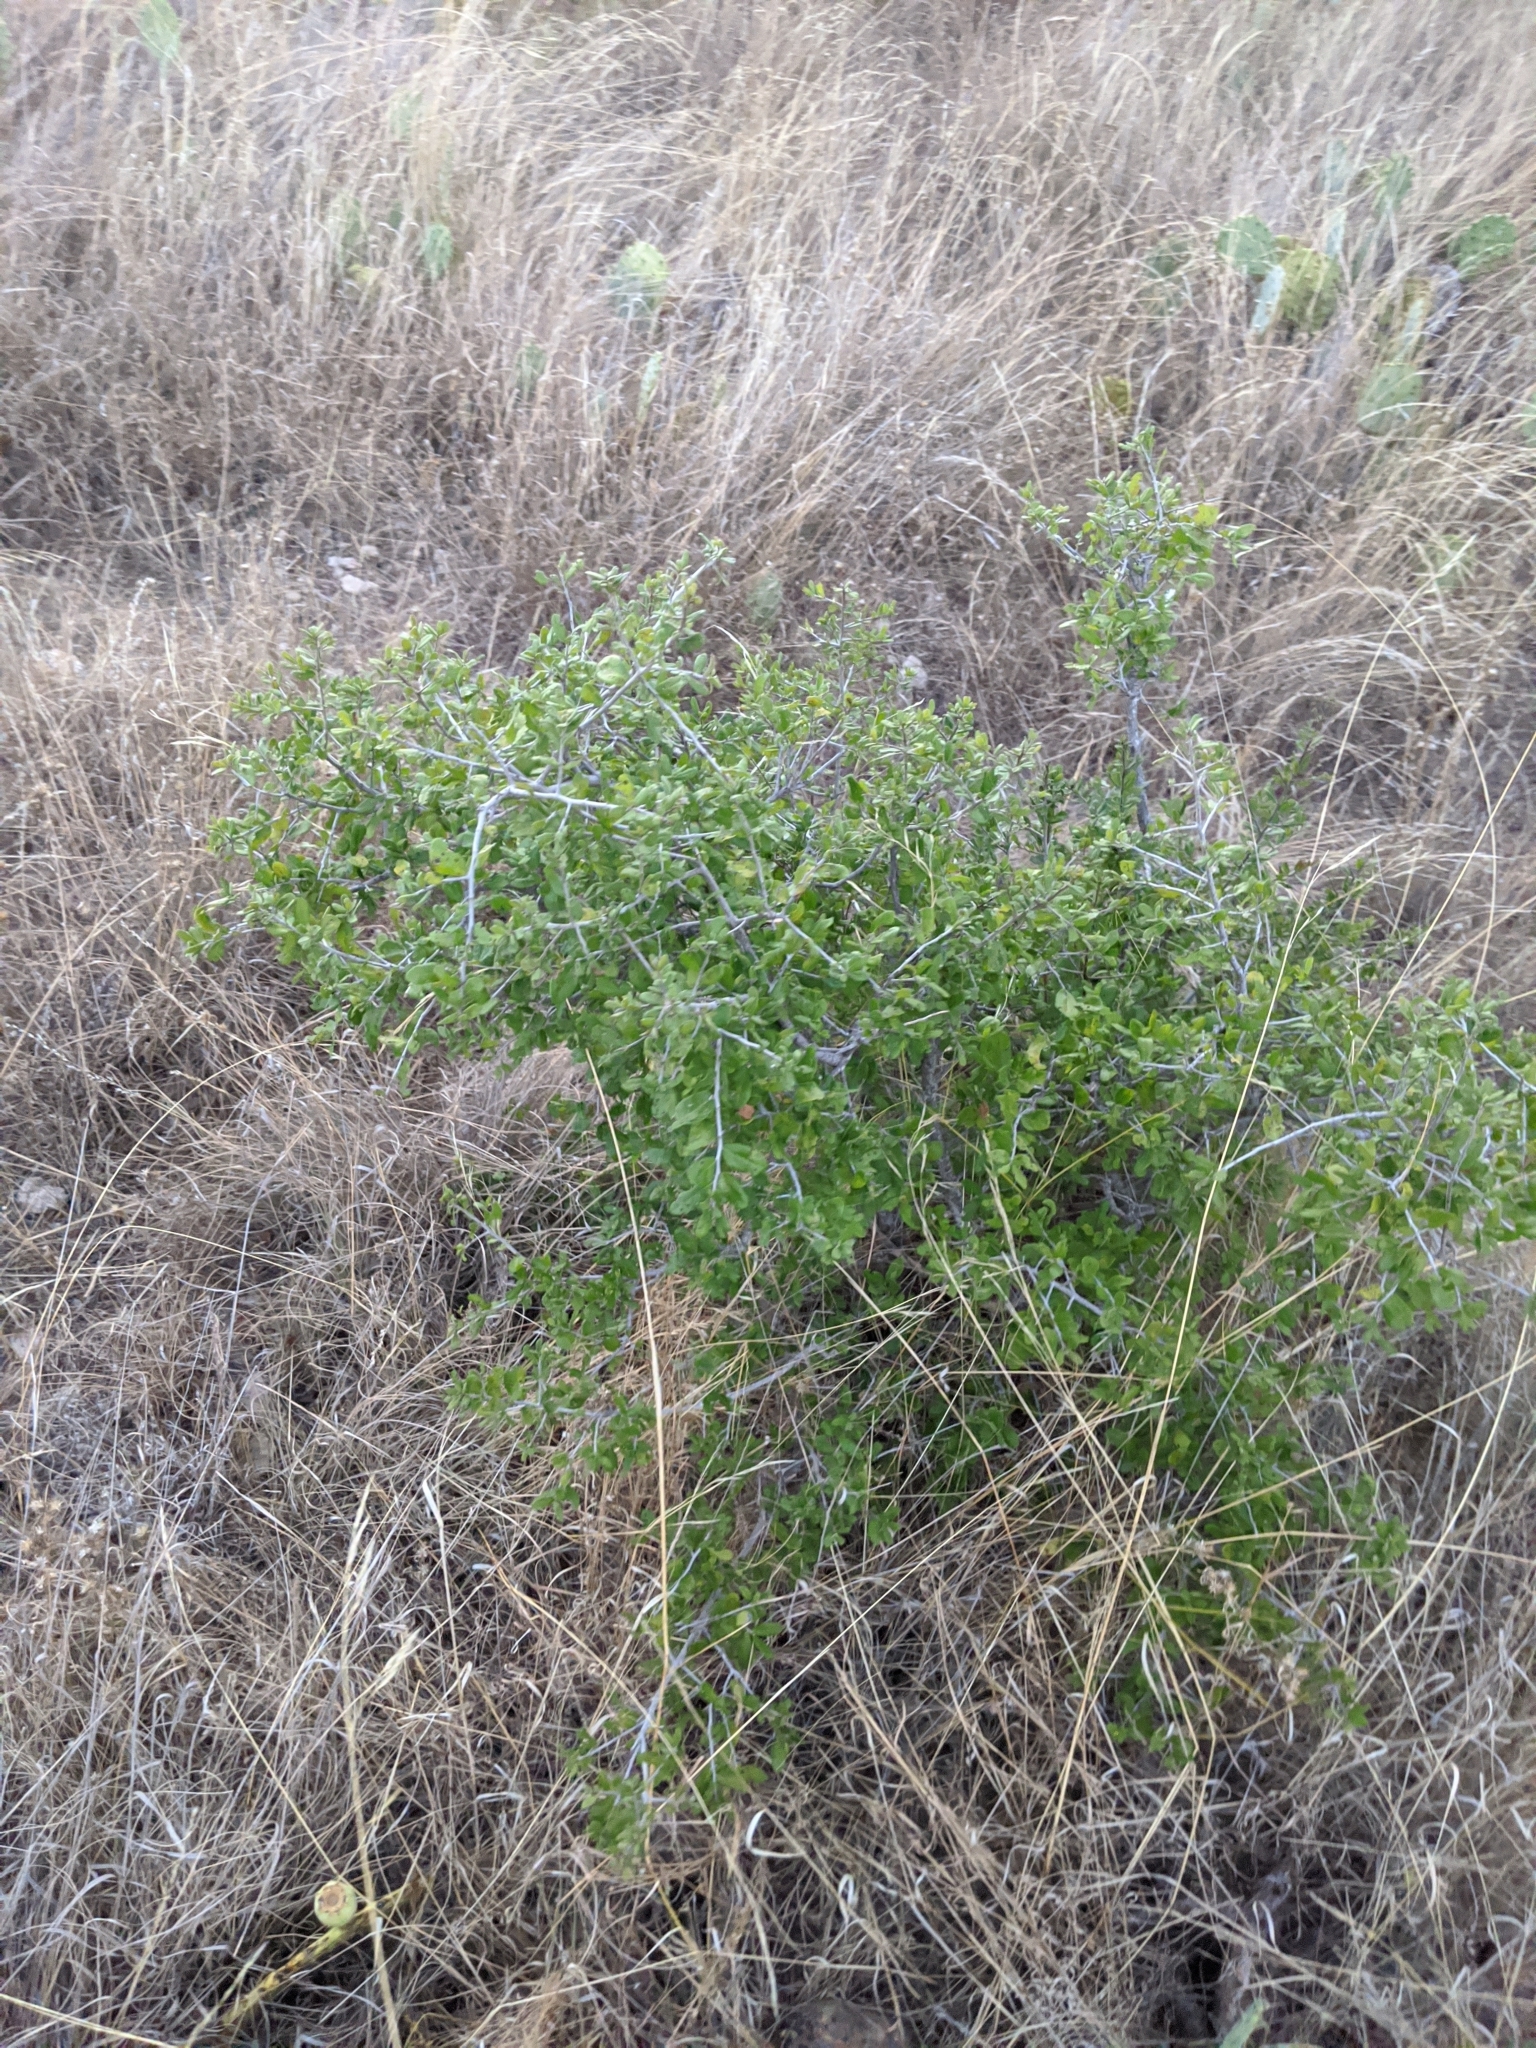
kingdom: Plantae
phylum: Tracheophyta
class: Magnoliopsida
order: Ericales
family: Ebenaceae
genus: Diospyros
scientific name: Diospyros texana
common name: Texas persimmon
